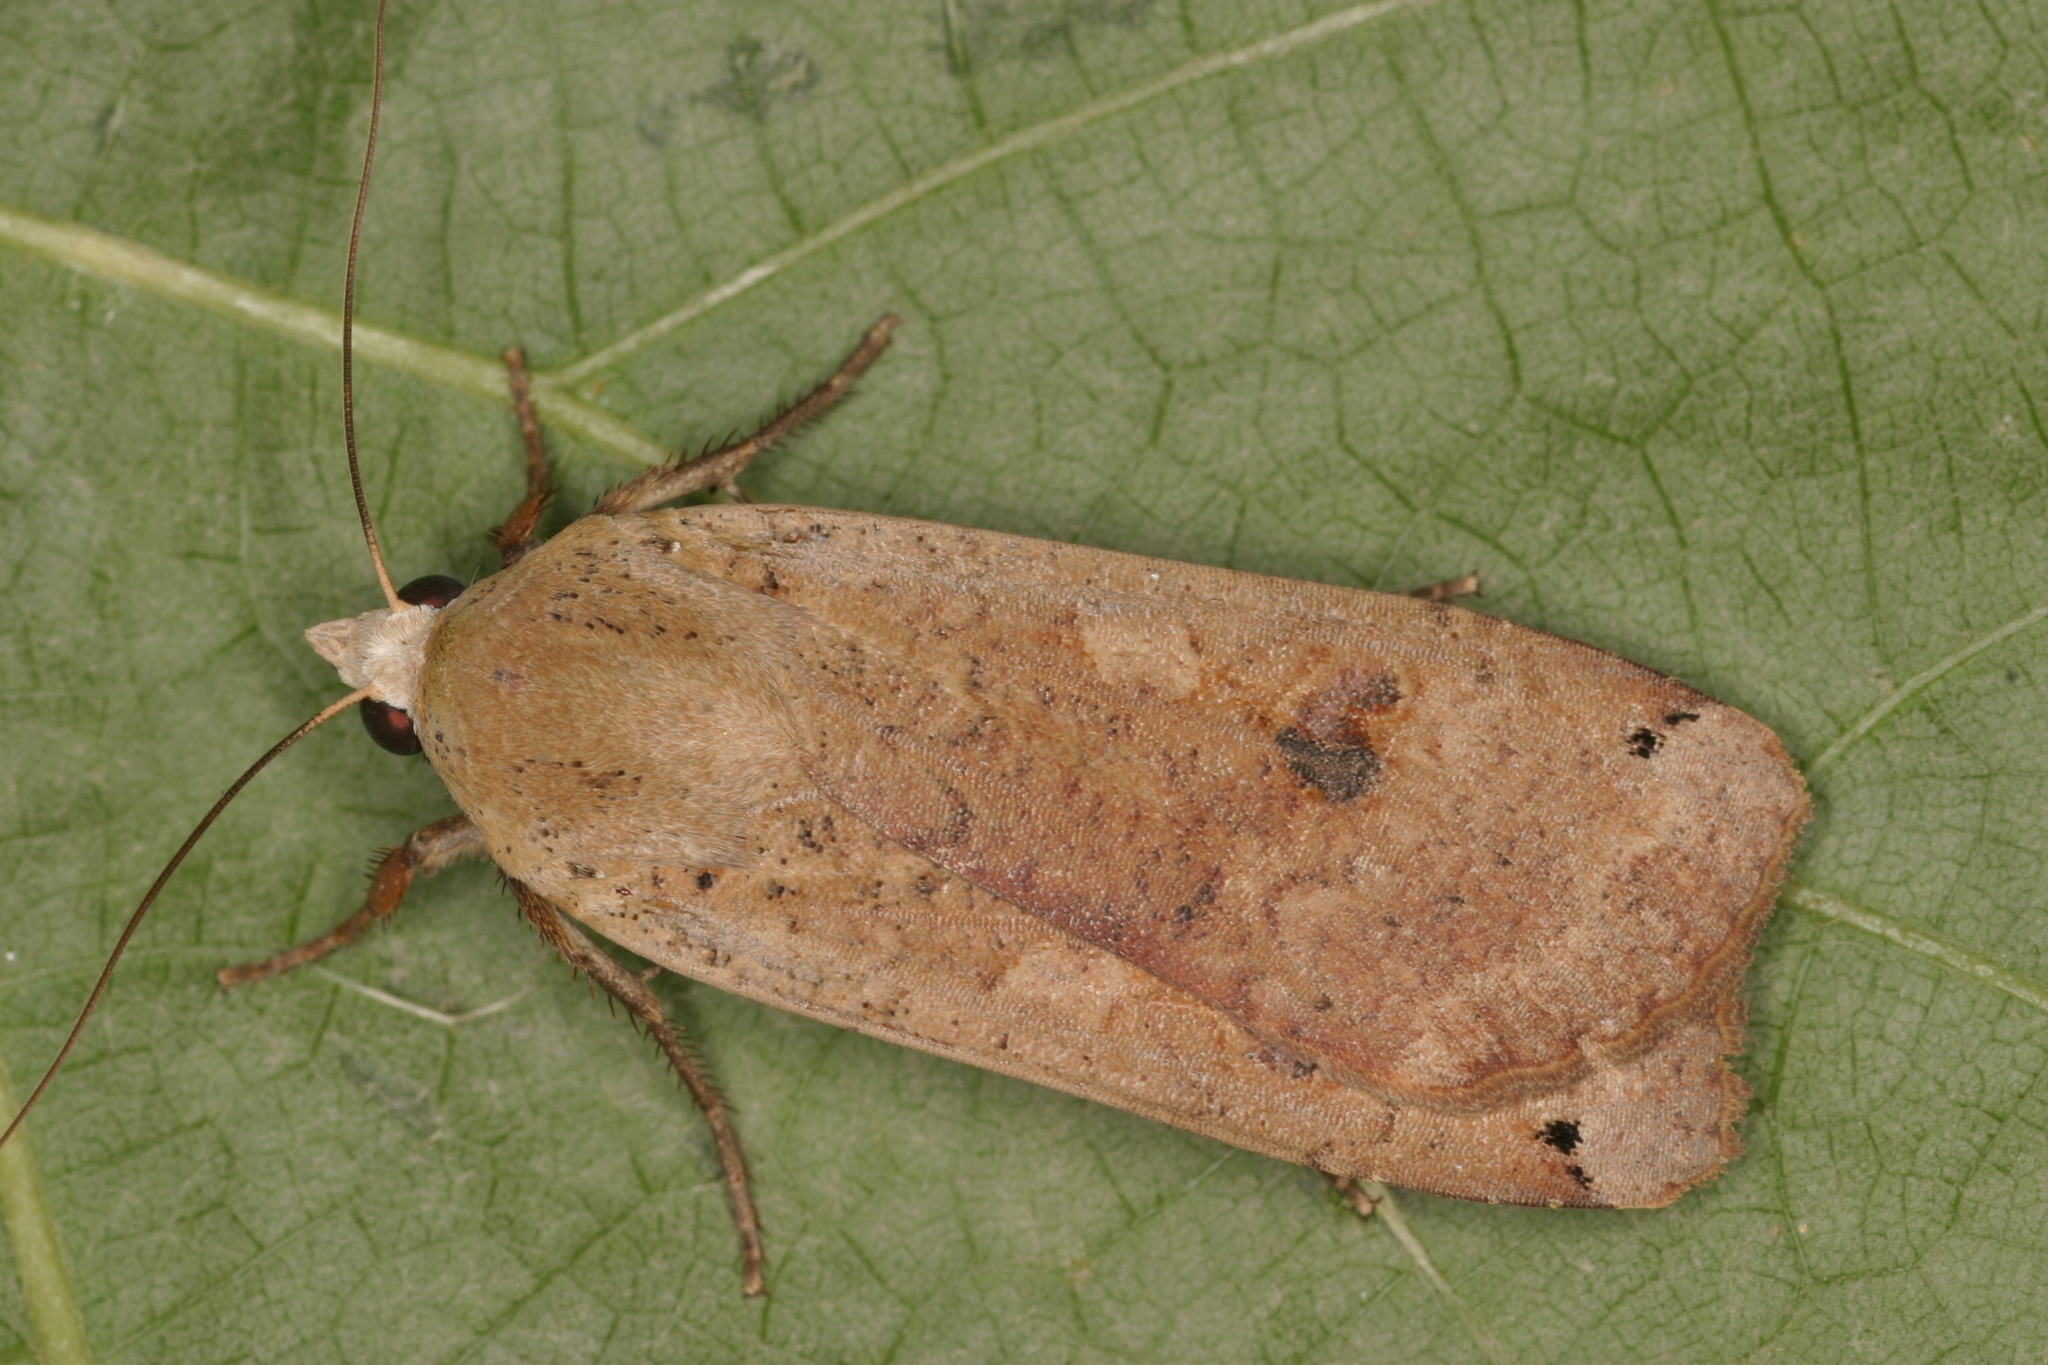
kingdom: Animalia
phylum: Arthropoda
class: Insecta
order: Lepidoptera
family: Noctuidae
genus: Noctua
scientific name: Noctua pronuba
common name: Large yellow underwing
